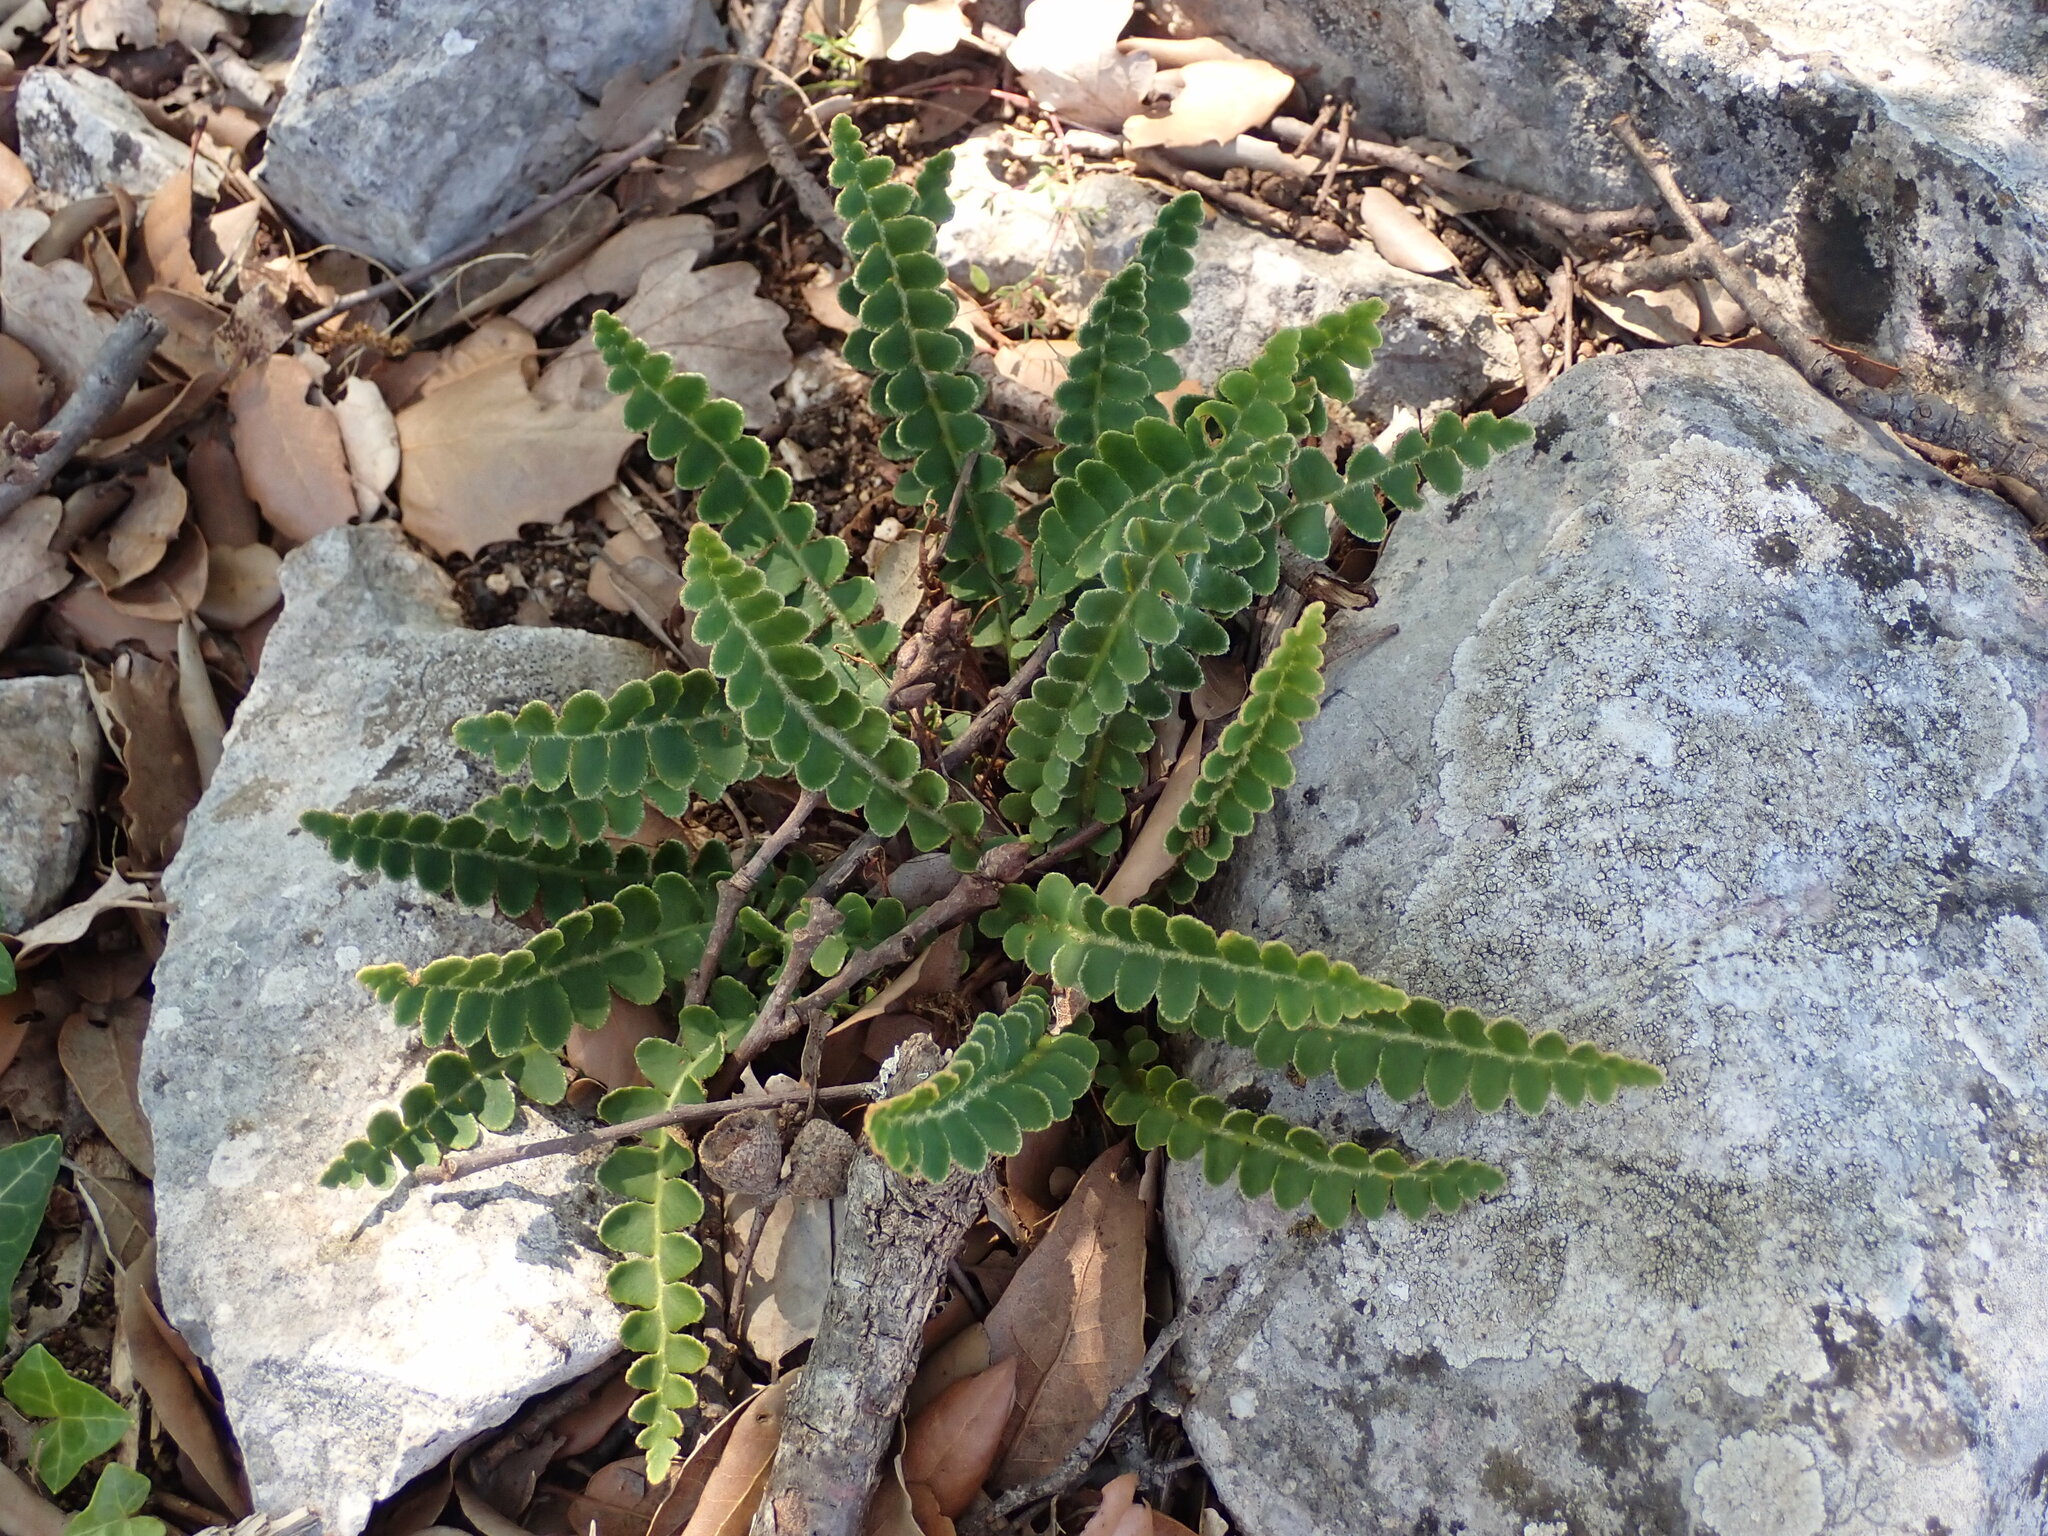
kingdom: Plantae
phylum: Tracheophyta
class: Polypodiopsida
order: Polypodiales
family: Aspleniaceae
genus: Asplenium
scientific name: Asplenium ceterach
